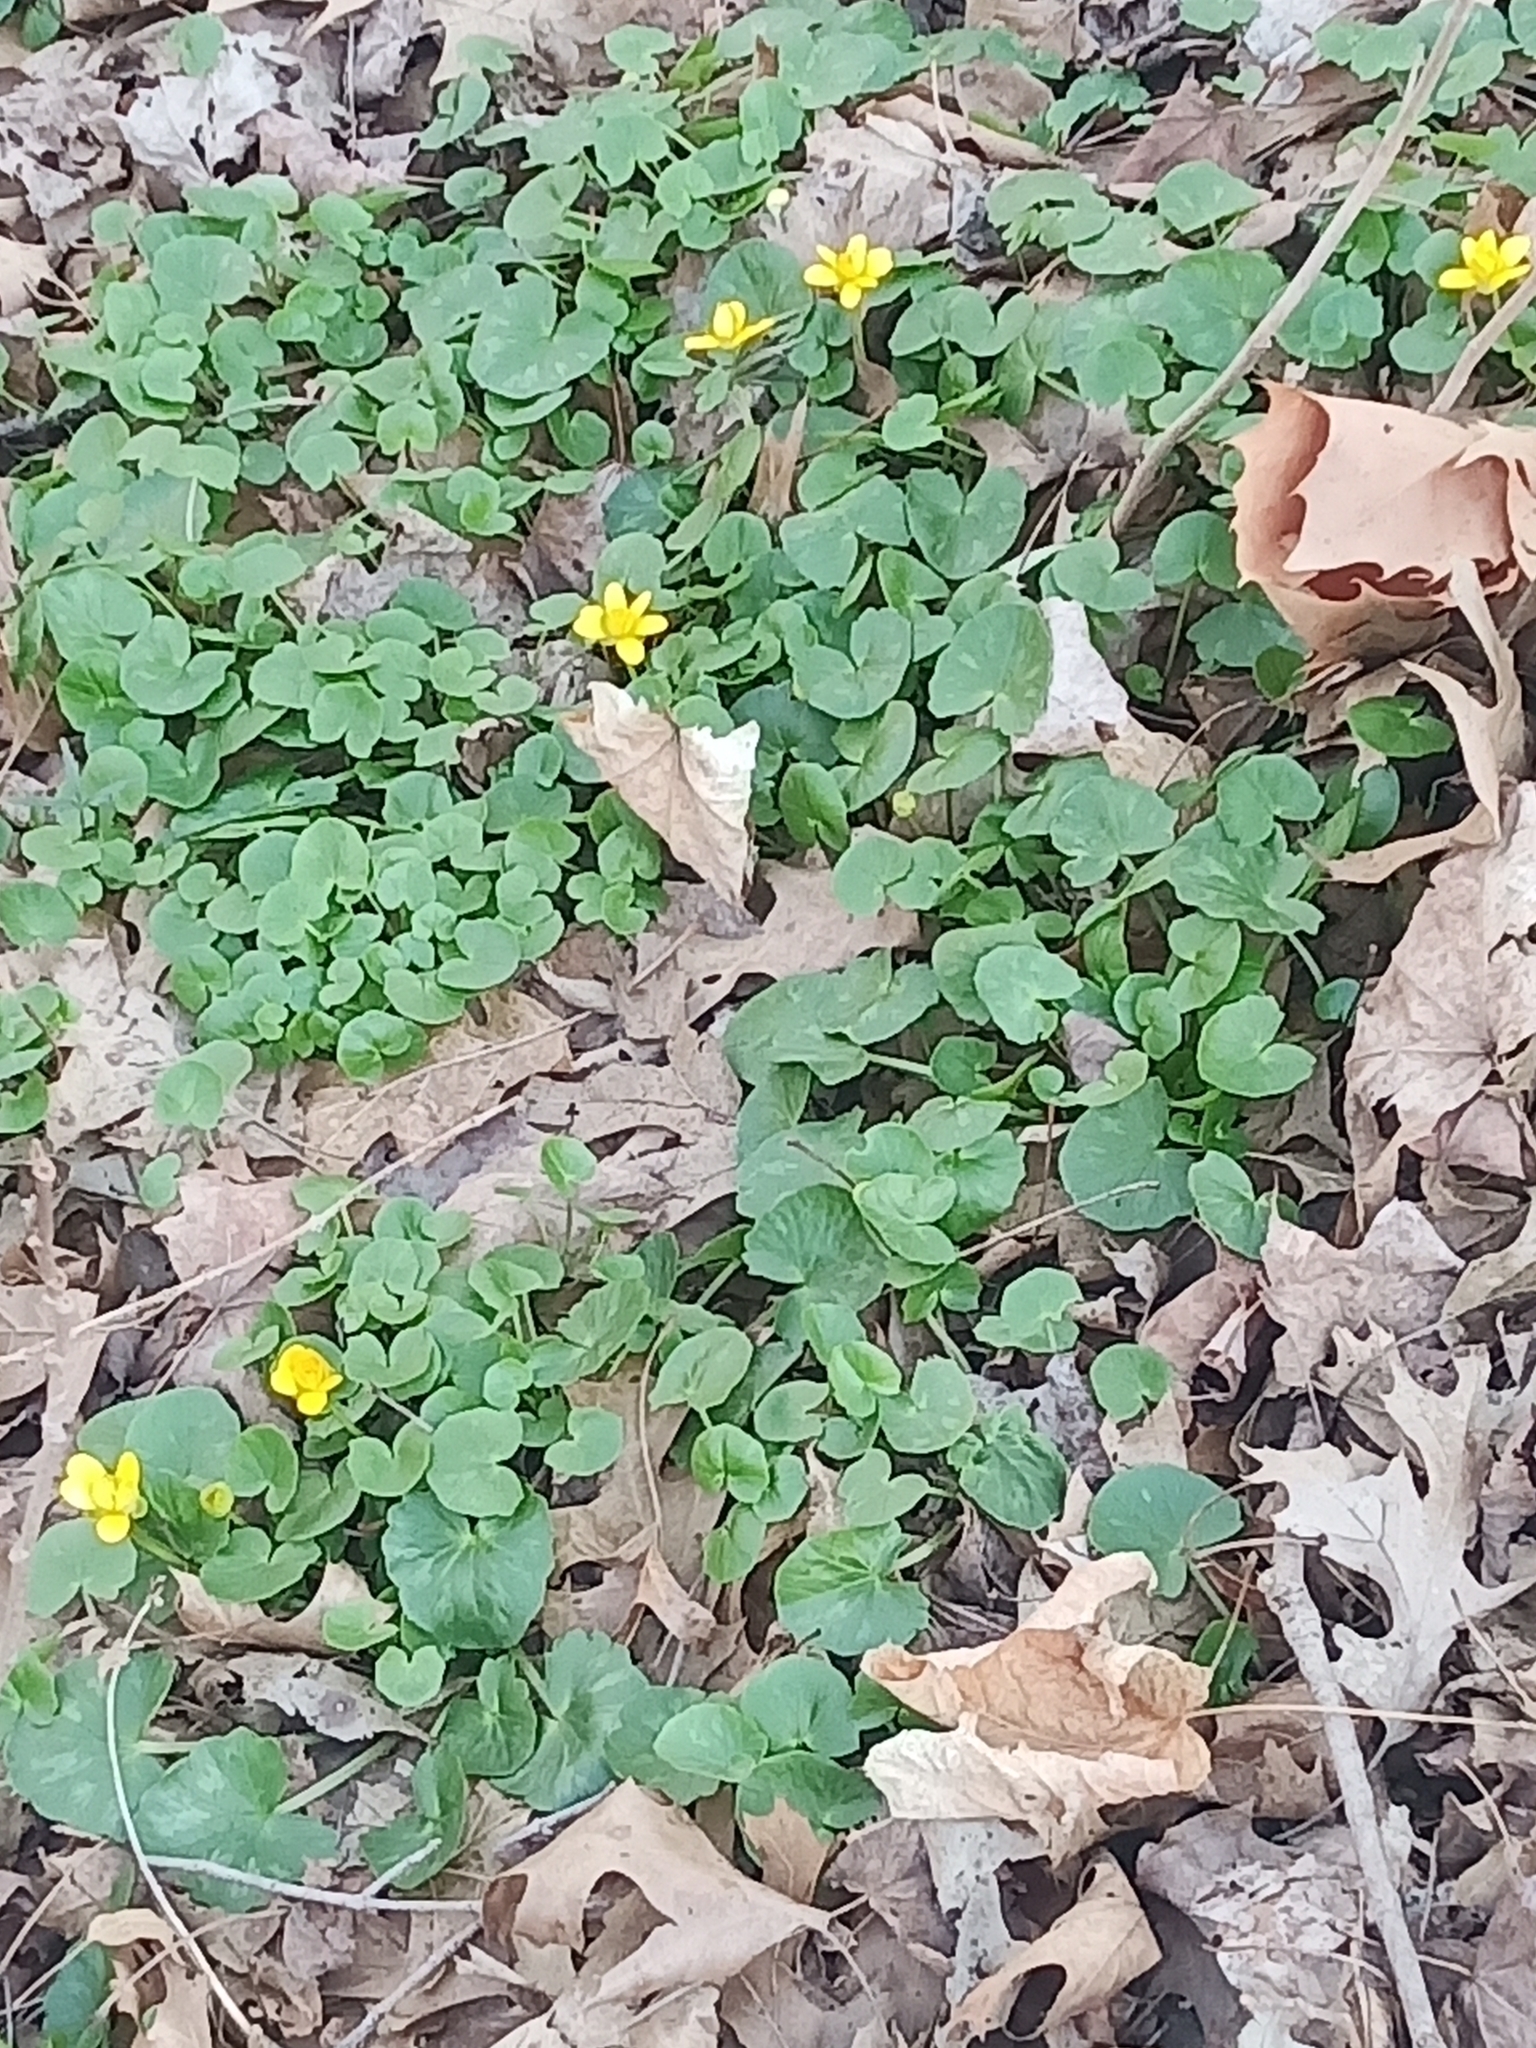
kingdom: Plantae
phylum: Tracheophyta
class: Magnoliopsida
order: Ranunculales
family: Ranunculaceae
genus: Ficaria
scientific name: Ficaria verna
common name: Lesser celandine
